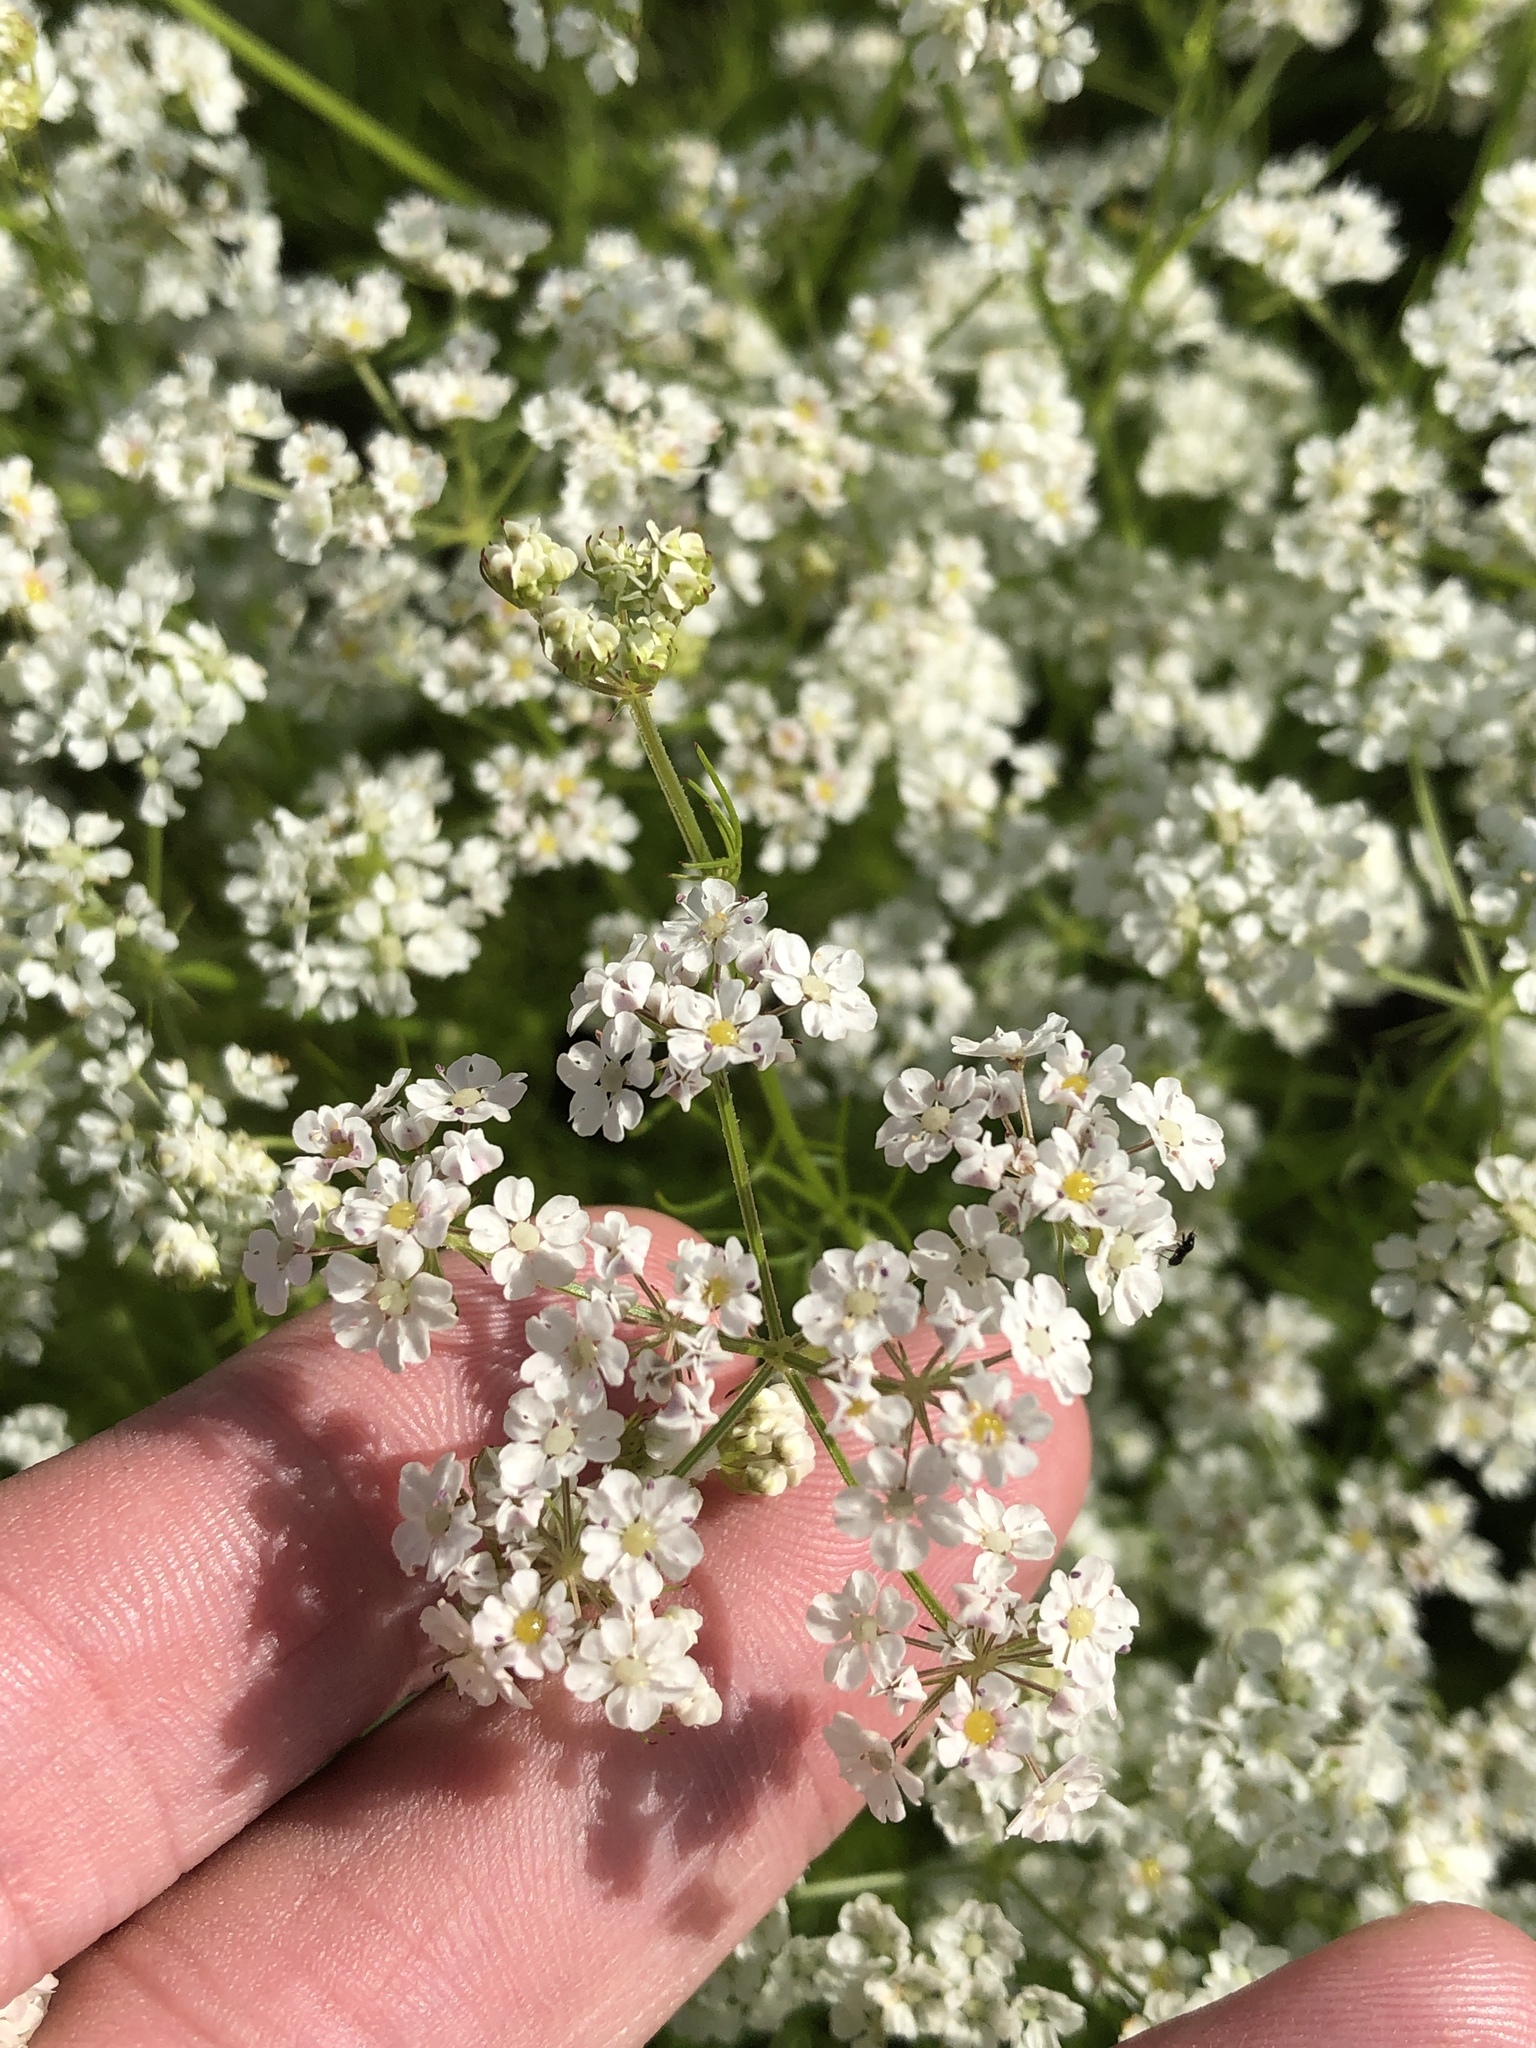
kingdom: Plantae
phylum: Tracheophyta
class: Magnoliopsida
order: Apiales
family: Apiaceae
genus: Atrema
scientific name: Atrema americanum
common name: Prairie-bishop
